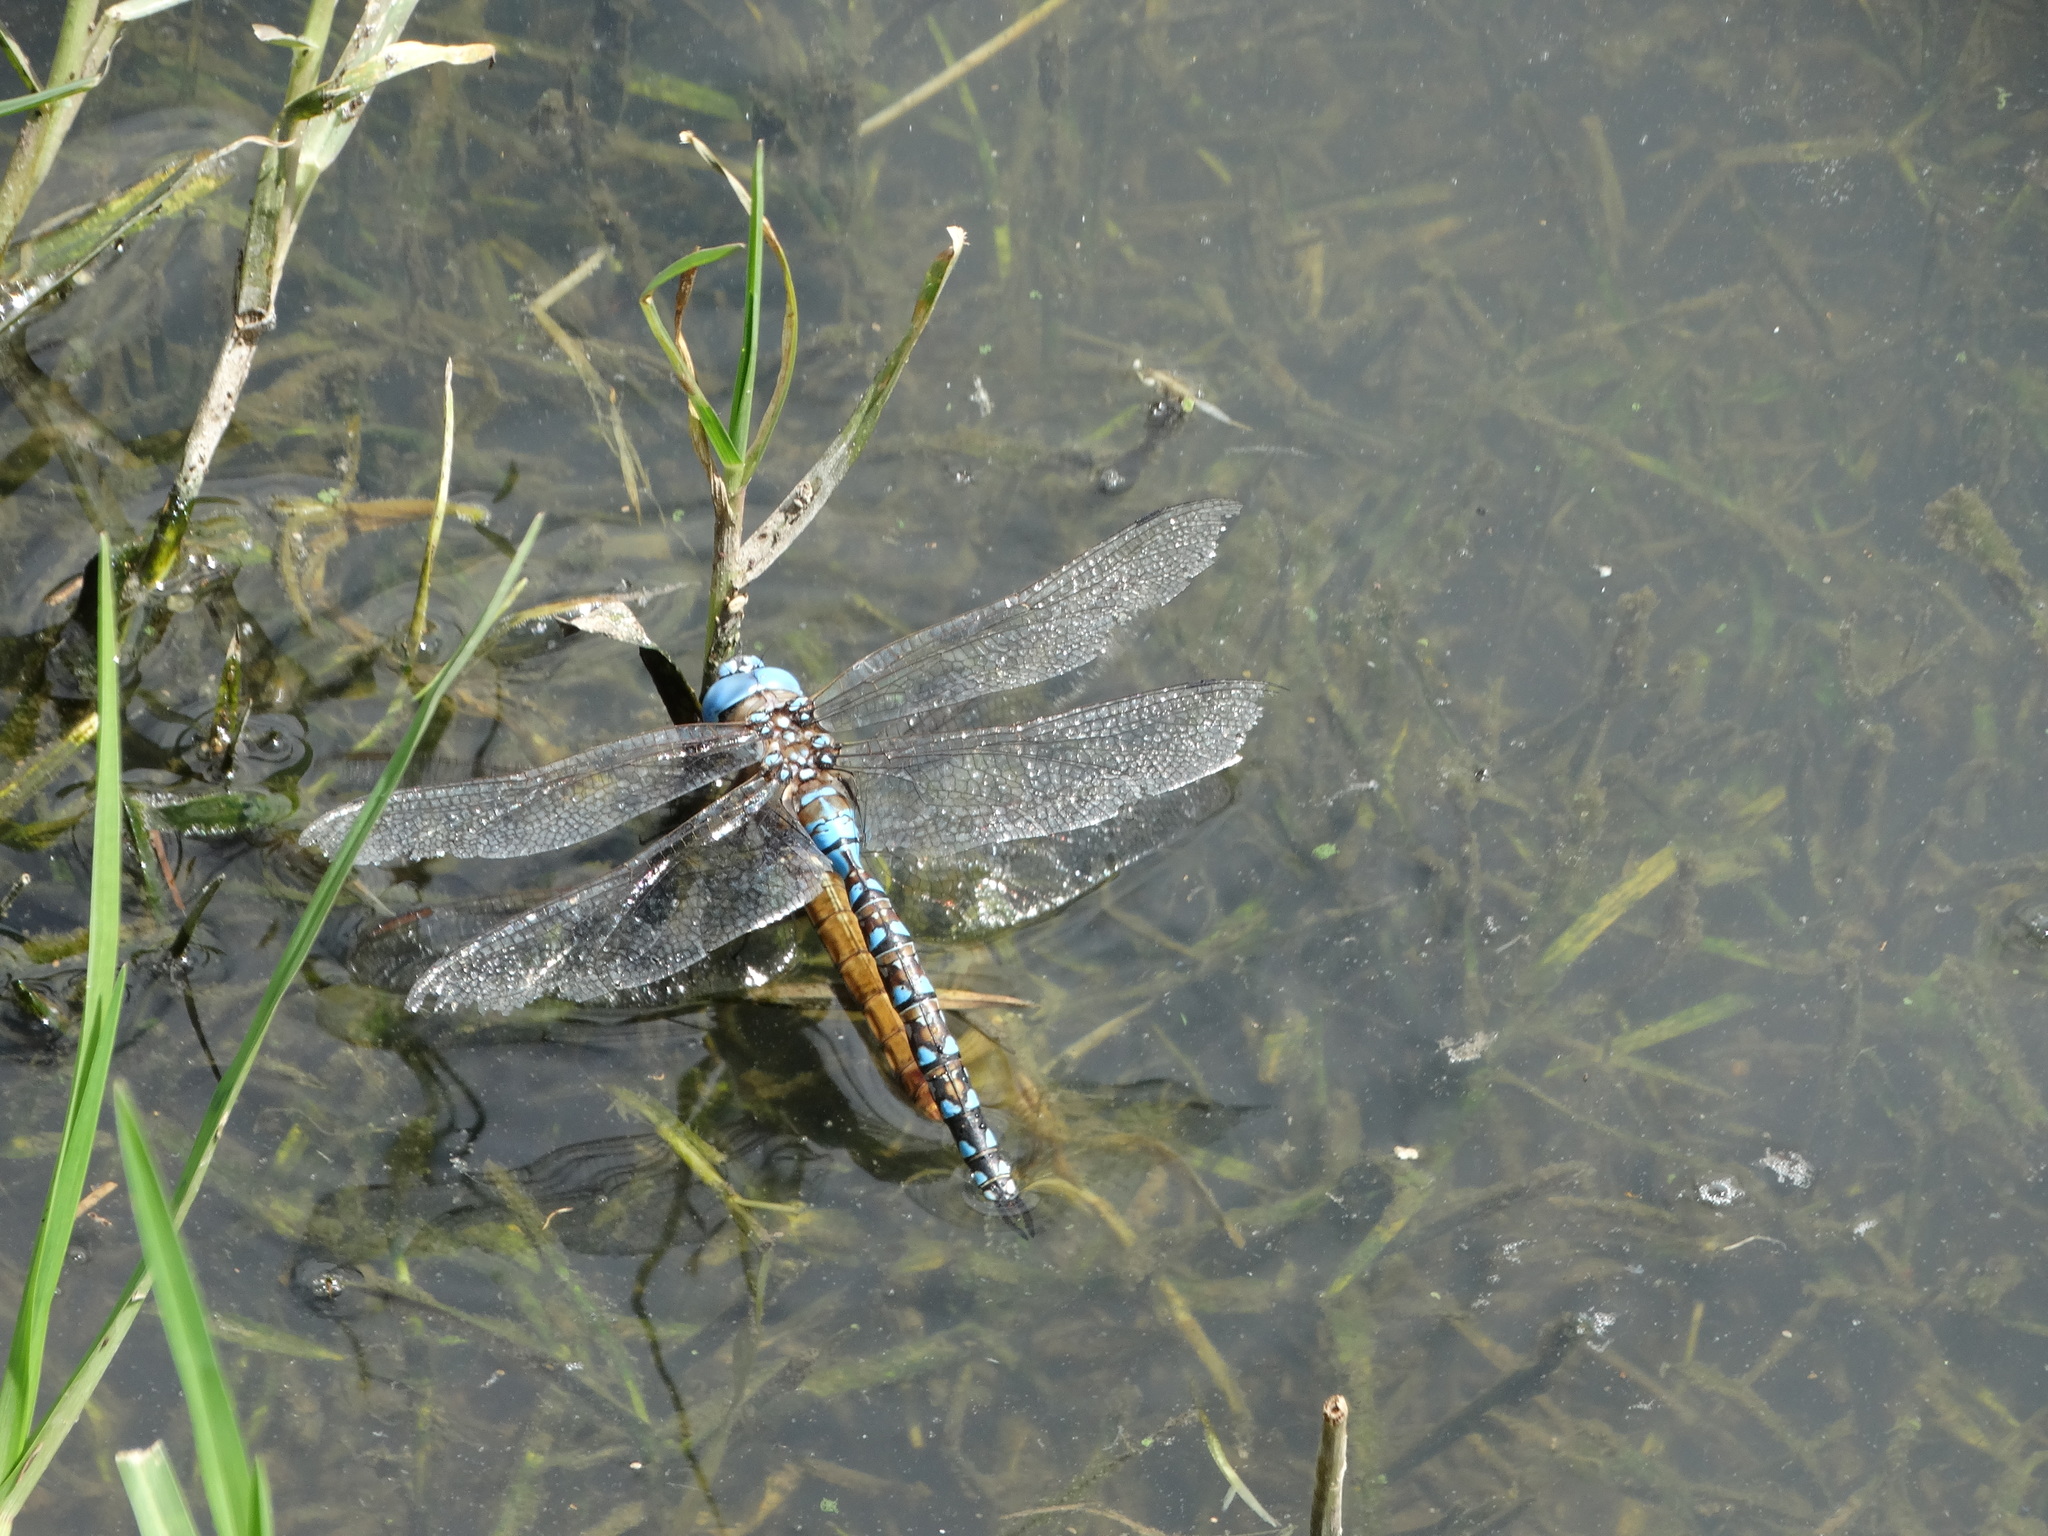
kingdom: Animalia
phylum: Arthropoda
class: Insecta
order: Odonata
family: Aeshnidae
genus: Rhionaeschna
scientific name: Rhionaeschna multicolor
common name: Blue-eyed darner
